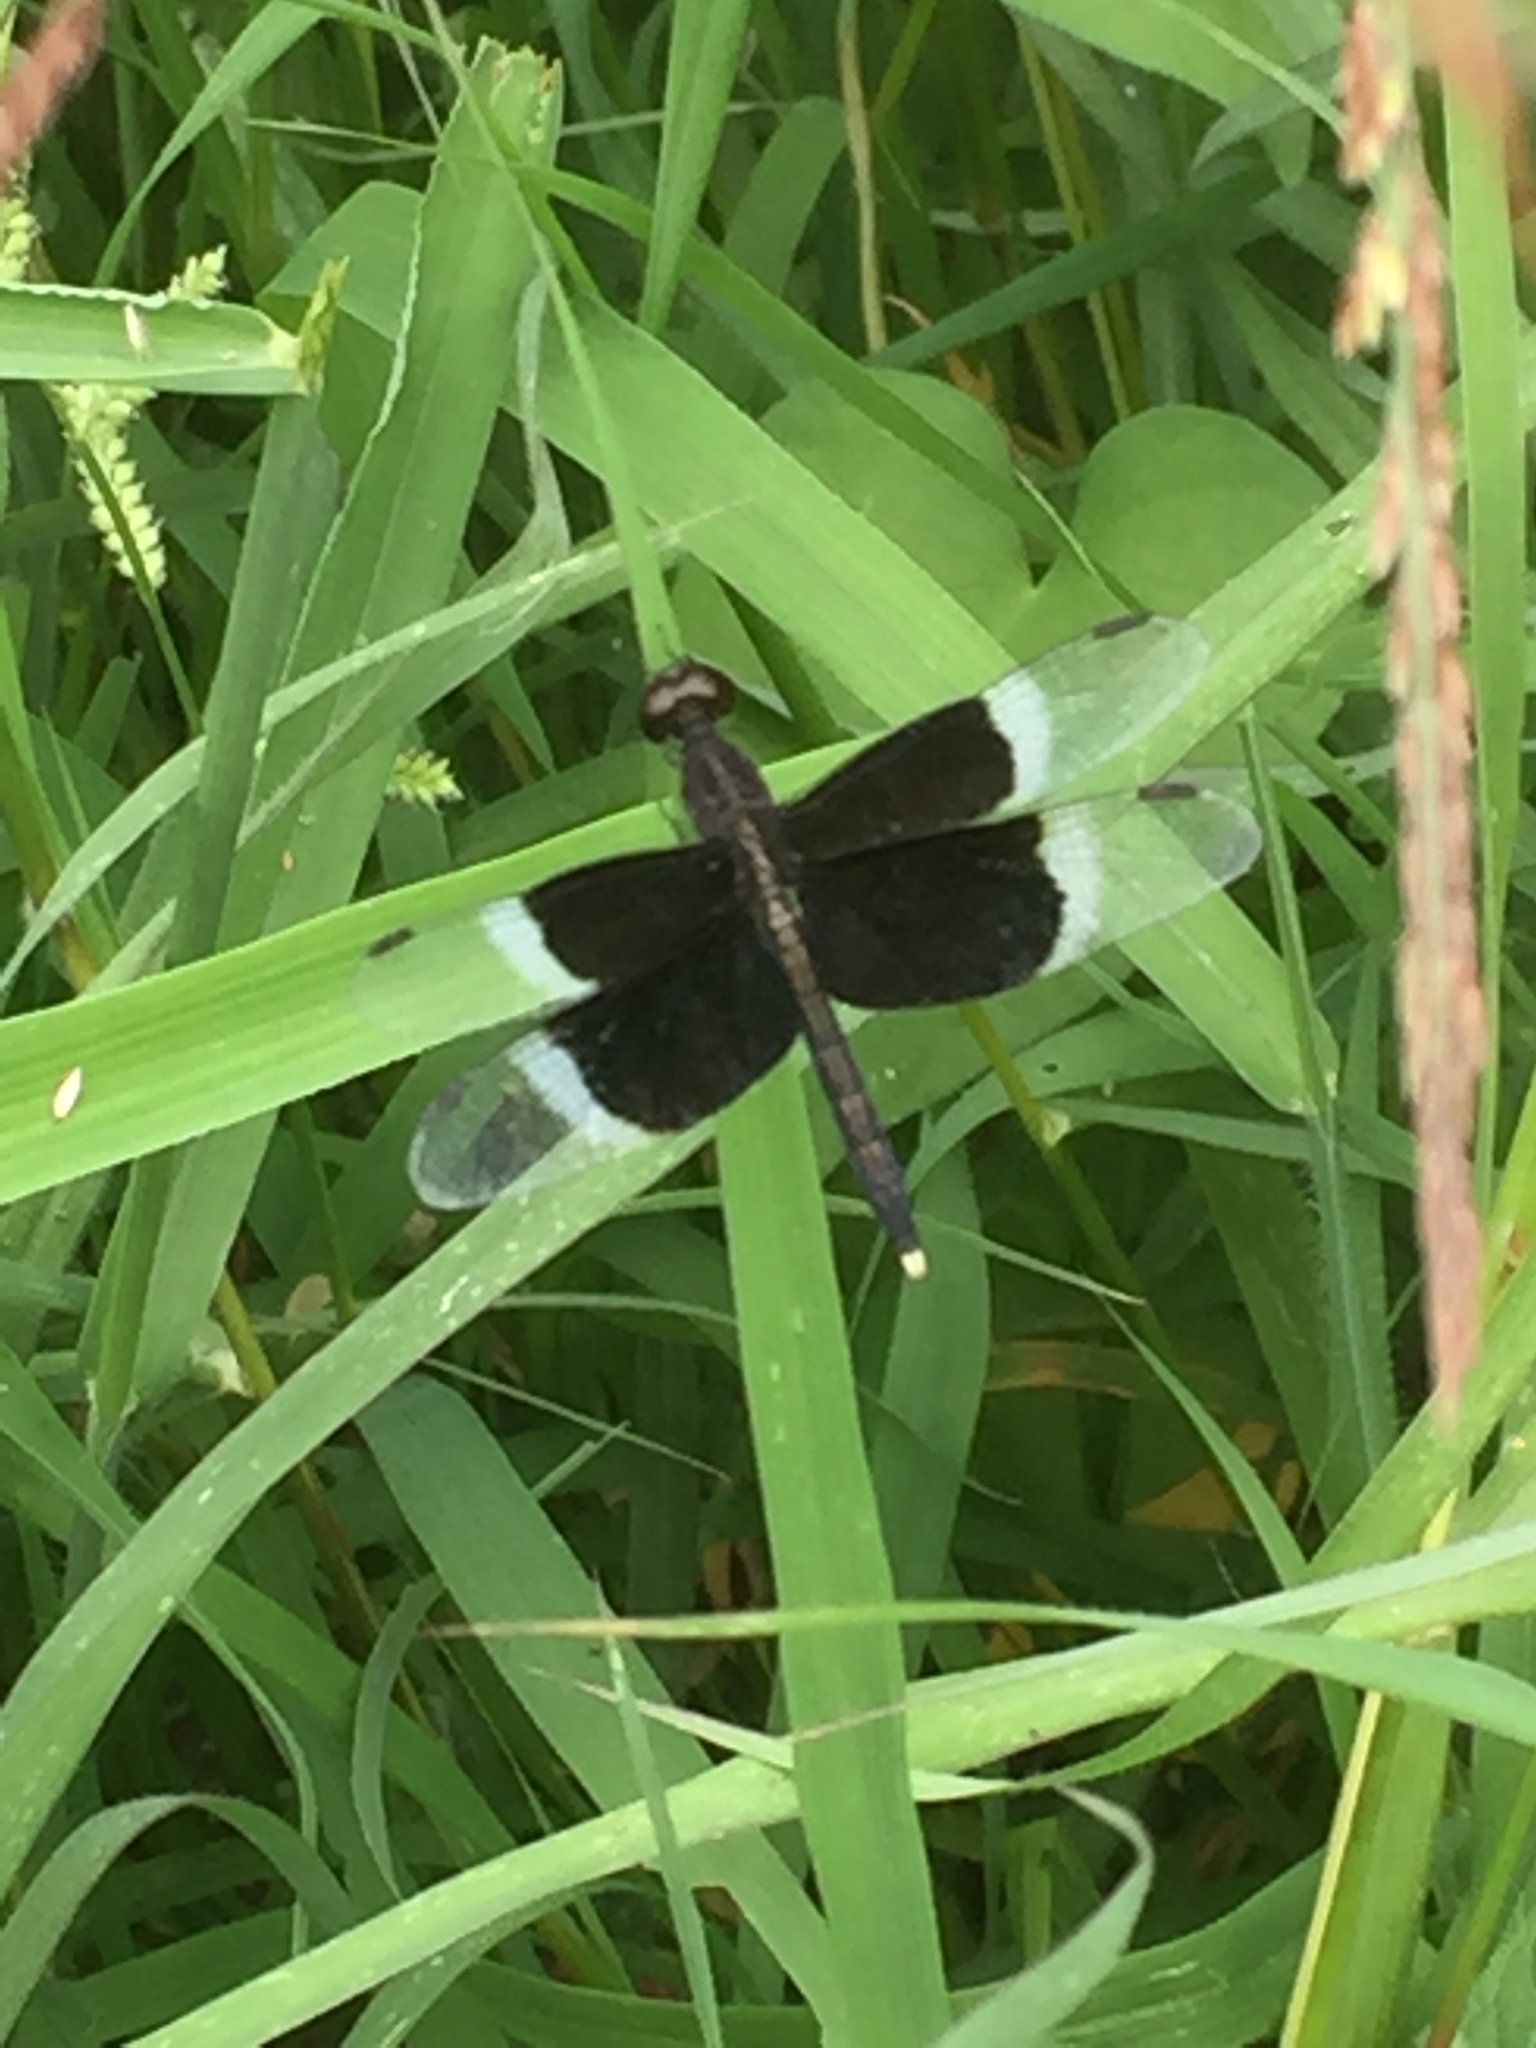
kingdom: Animalia
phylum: Arthropoda
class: Insecta
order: Odonata
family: Libellulidae
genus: Neurothemis
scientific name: Neurothemis tullia
